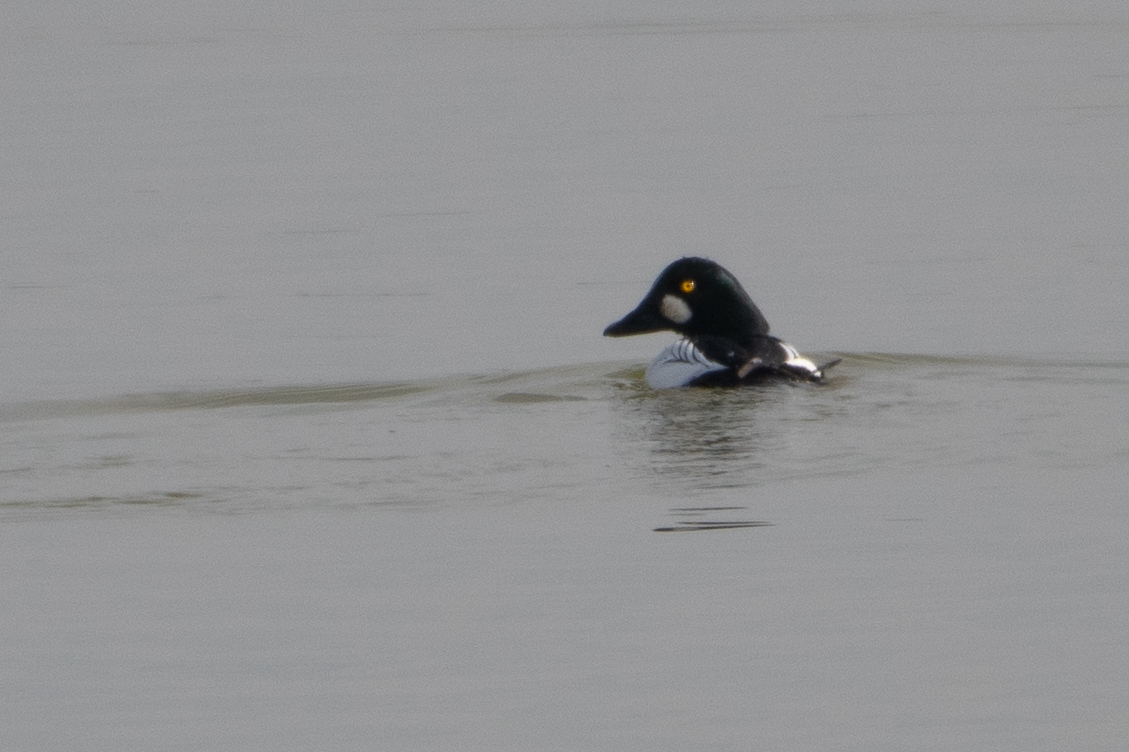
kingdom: Animalia
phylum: Chordata
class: Aves
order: Anseriformes
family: Anatidae
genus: Bucephala
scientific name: Bucephala clangula
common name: Common goldeneye
